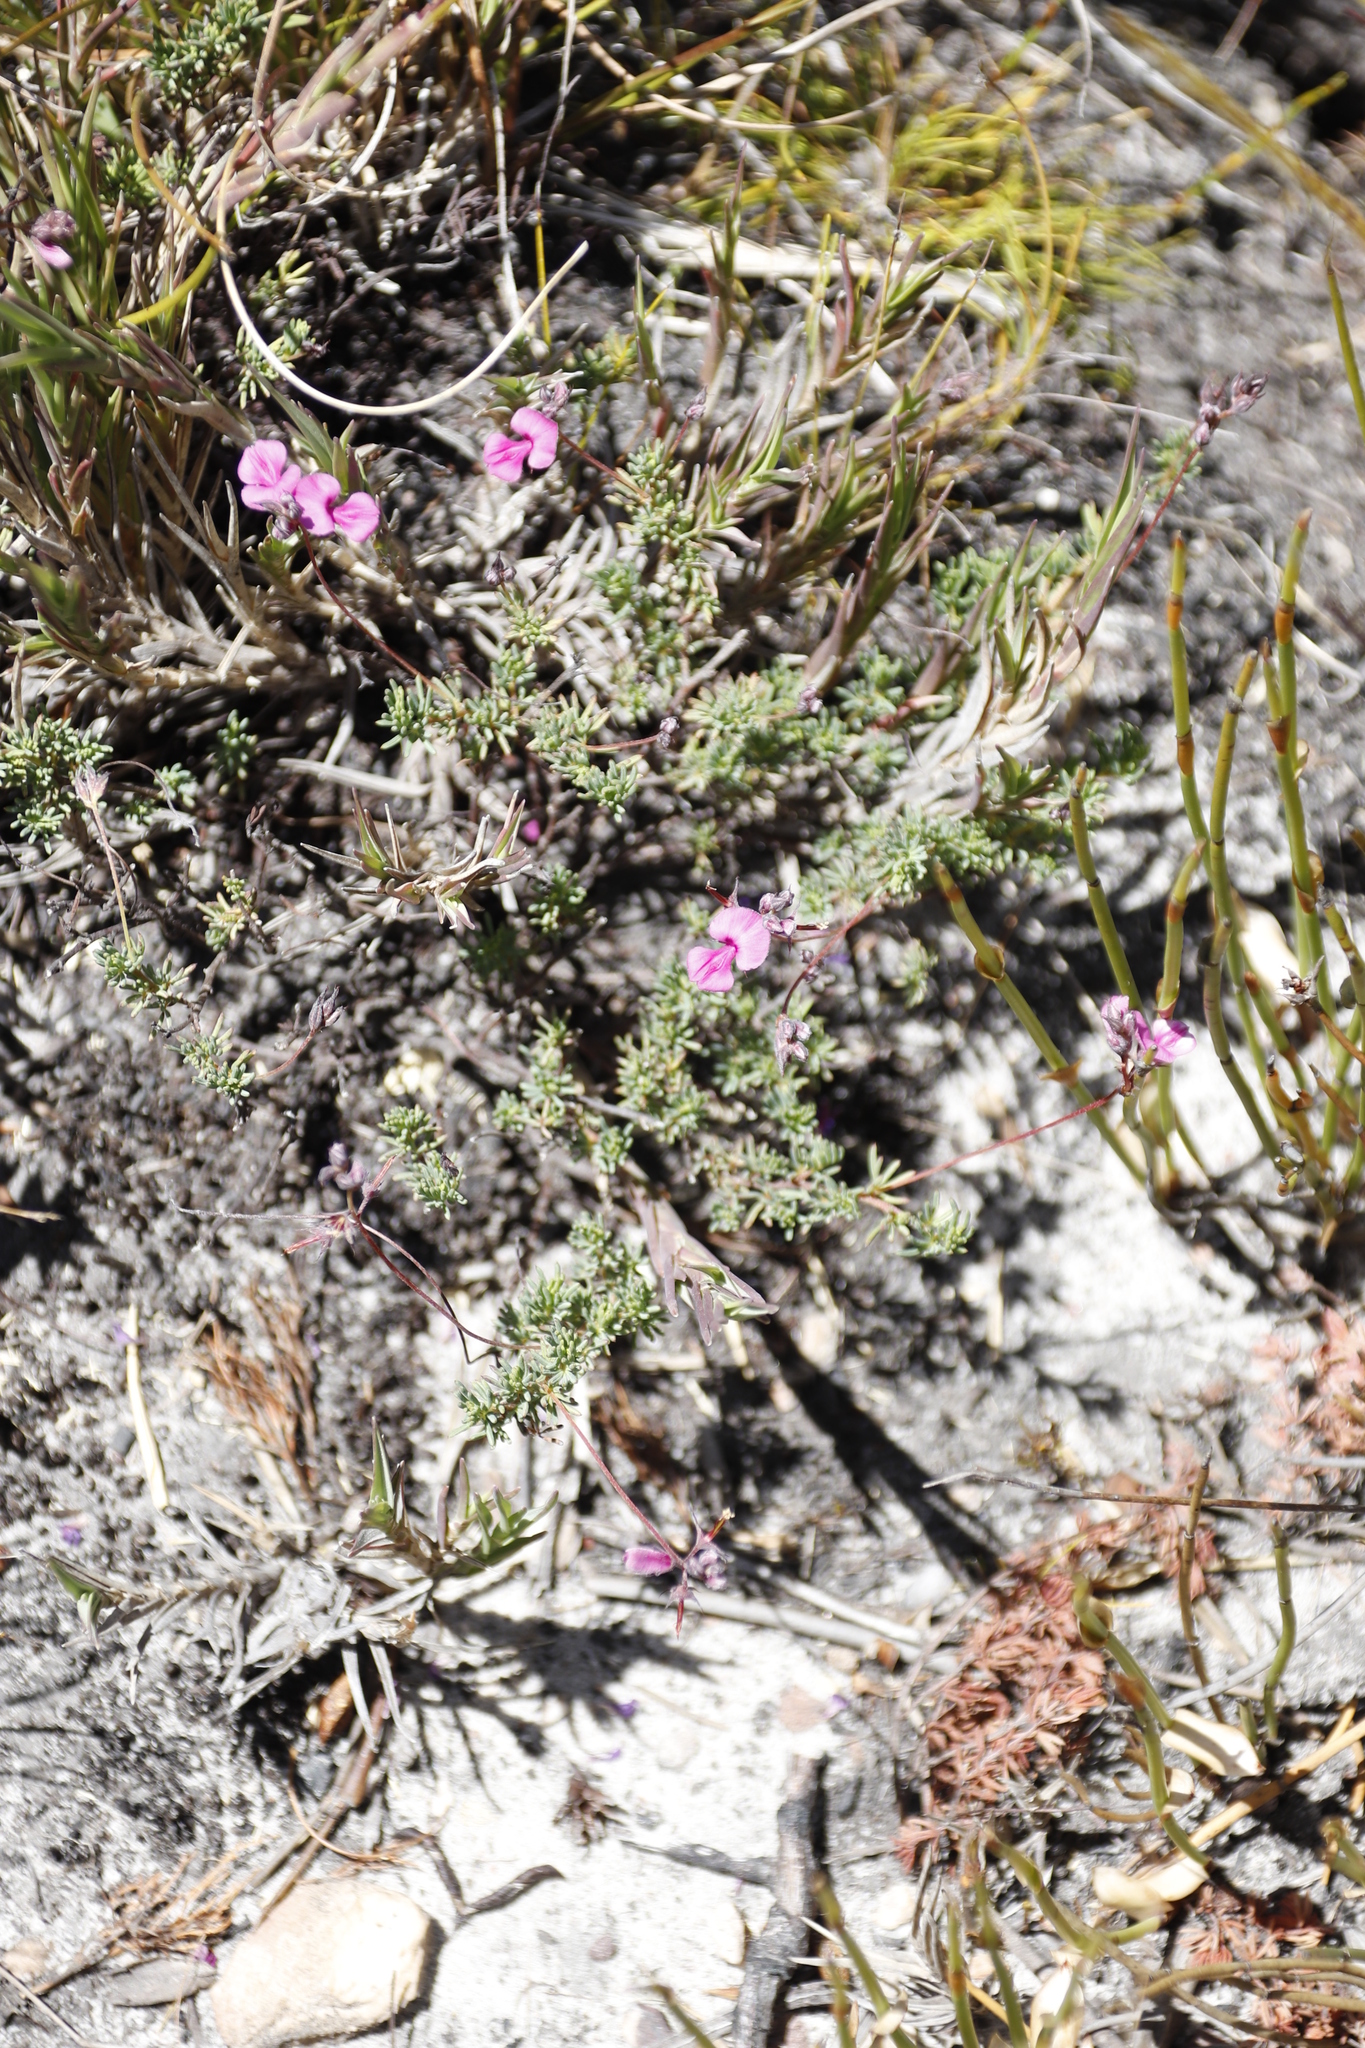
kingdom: Plantae
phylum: Tracheophyta
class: Magnoliopsida
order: Fabales
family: Fabaceae
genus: Indigofera
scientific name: Indigofera quinquefolia
